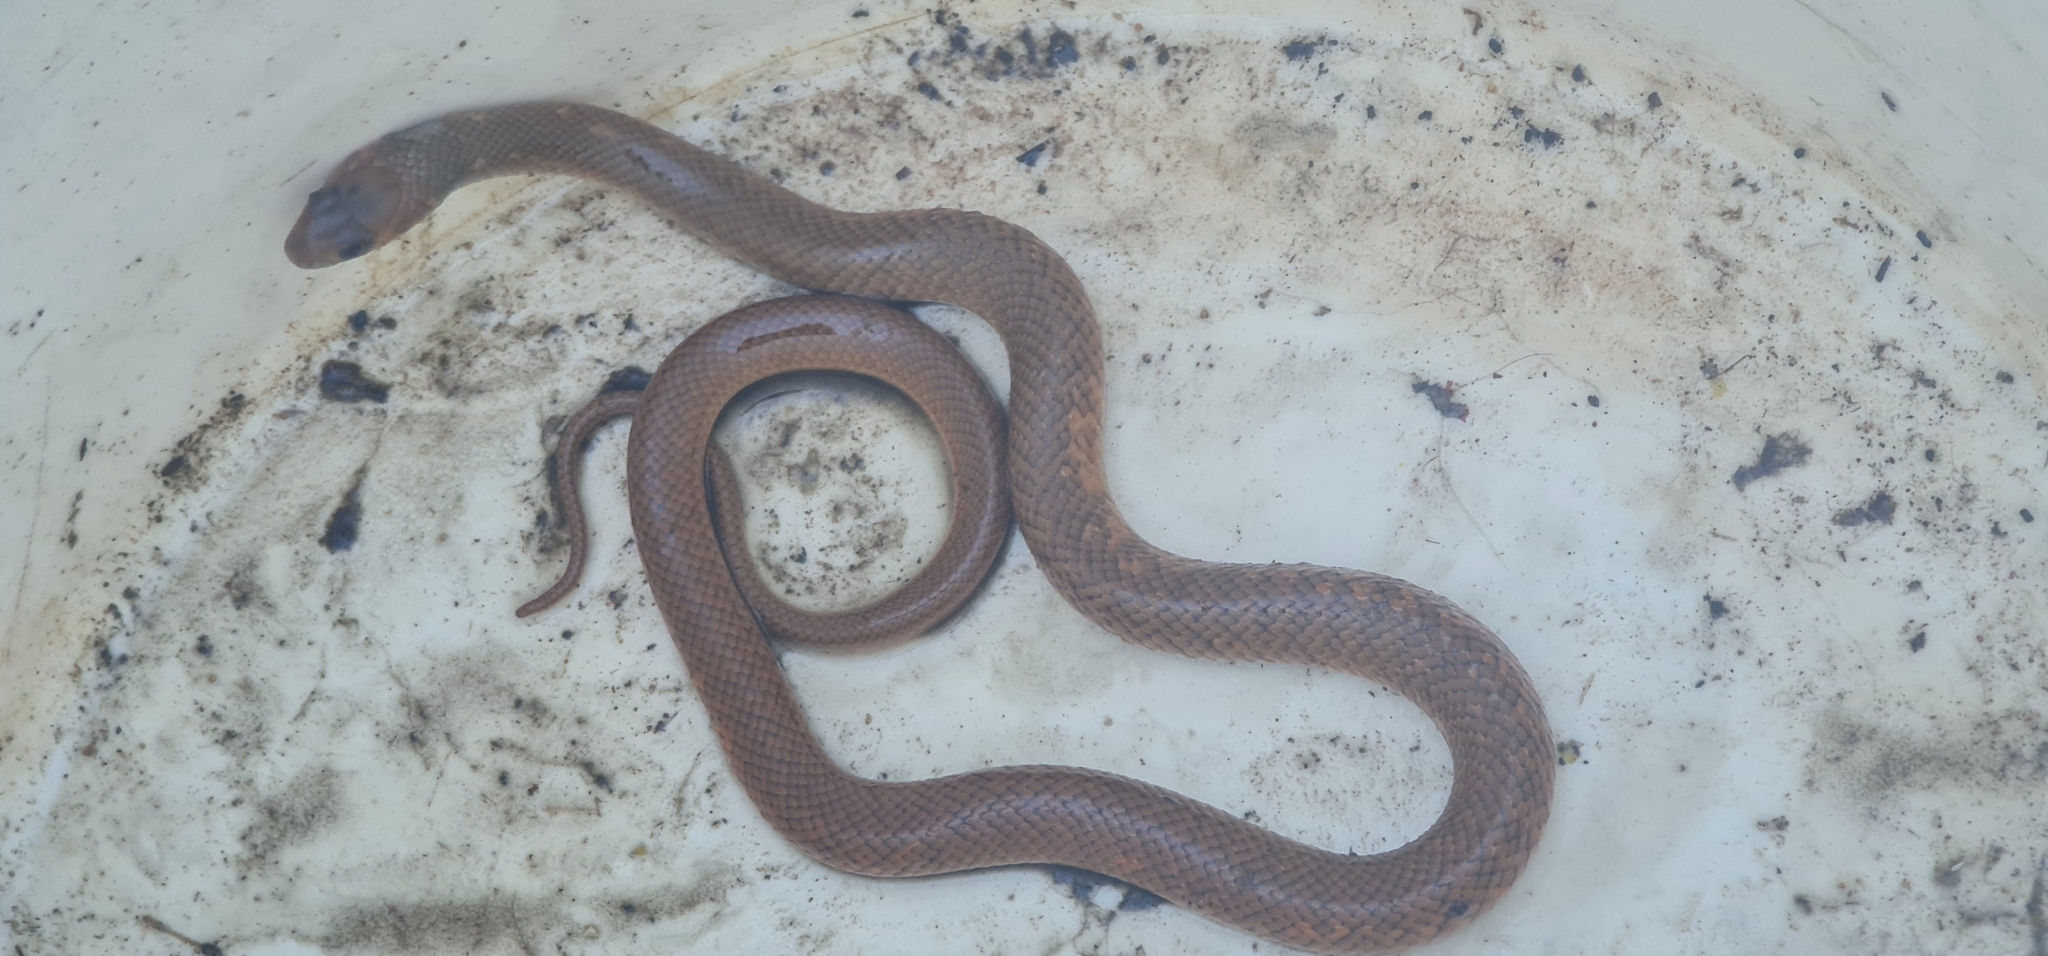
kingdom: Animalia
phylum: Chordata
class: Squamata
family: Elapidae
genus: Pseudonaja
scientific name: Pseudonaja textilis
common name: Eastern brown snake
